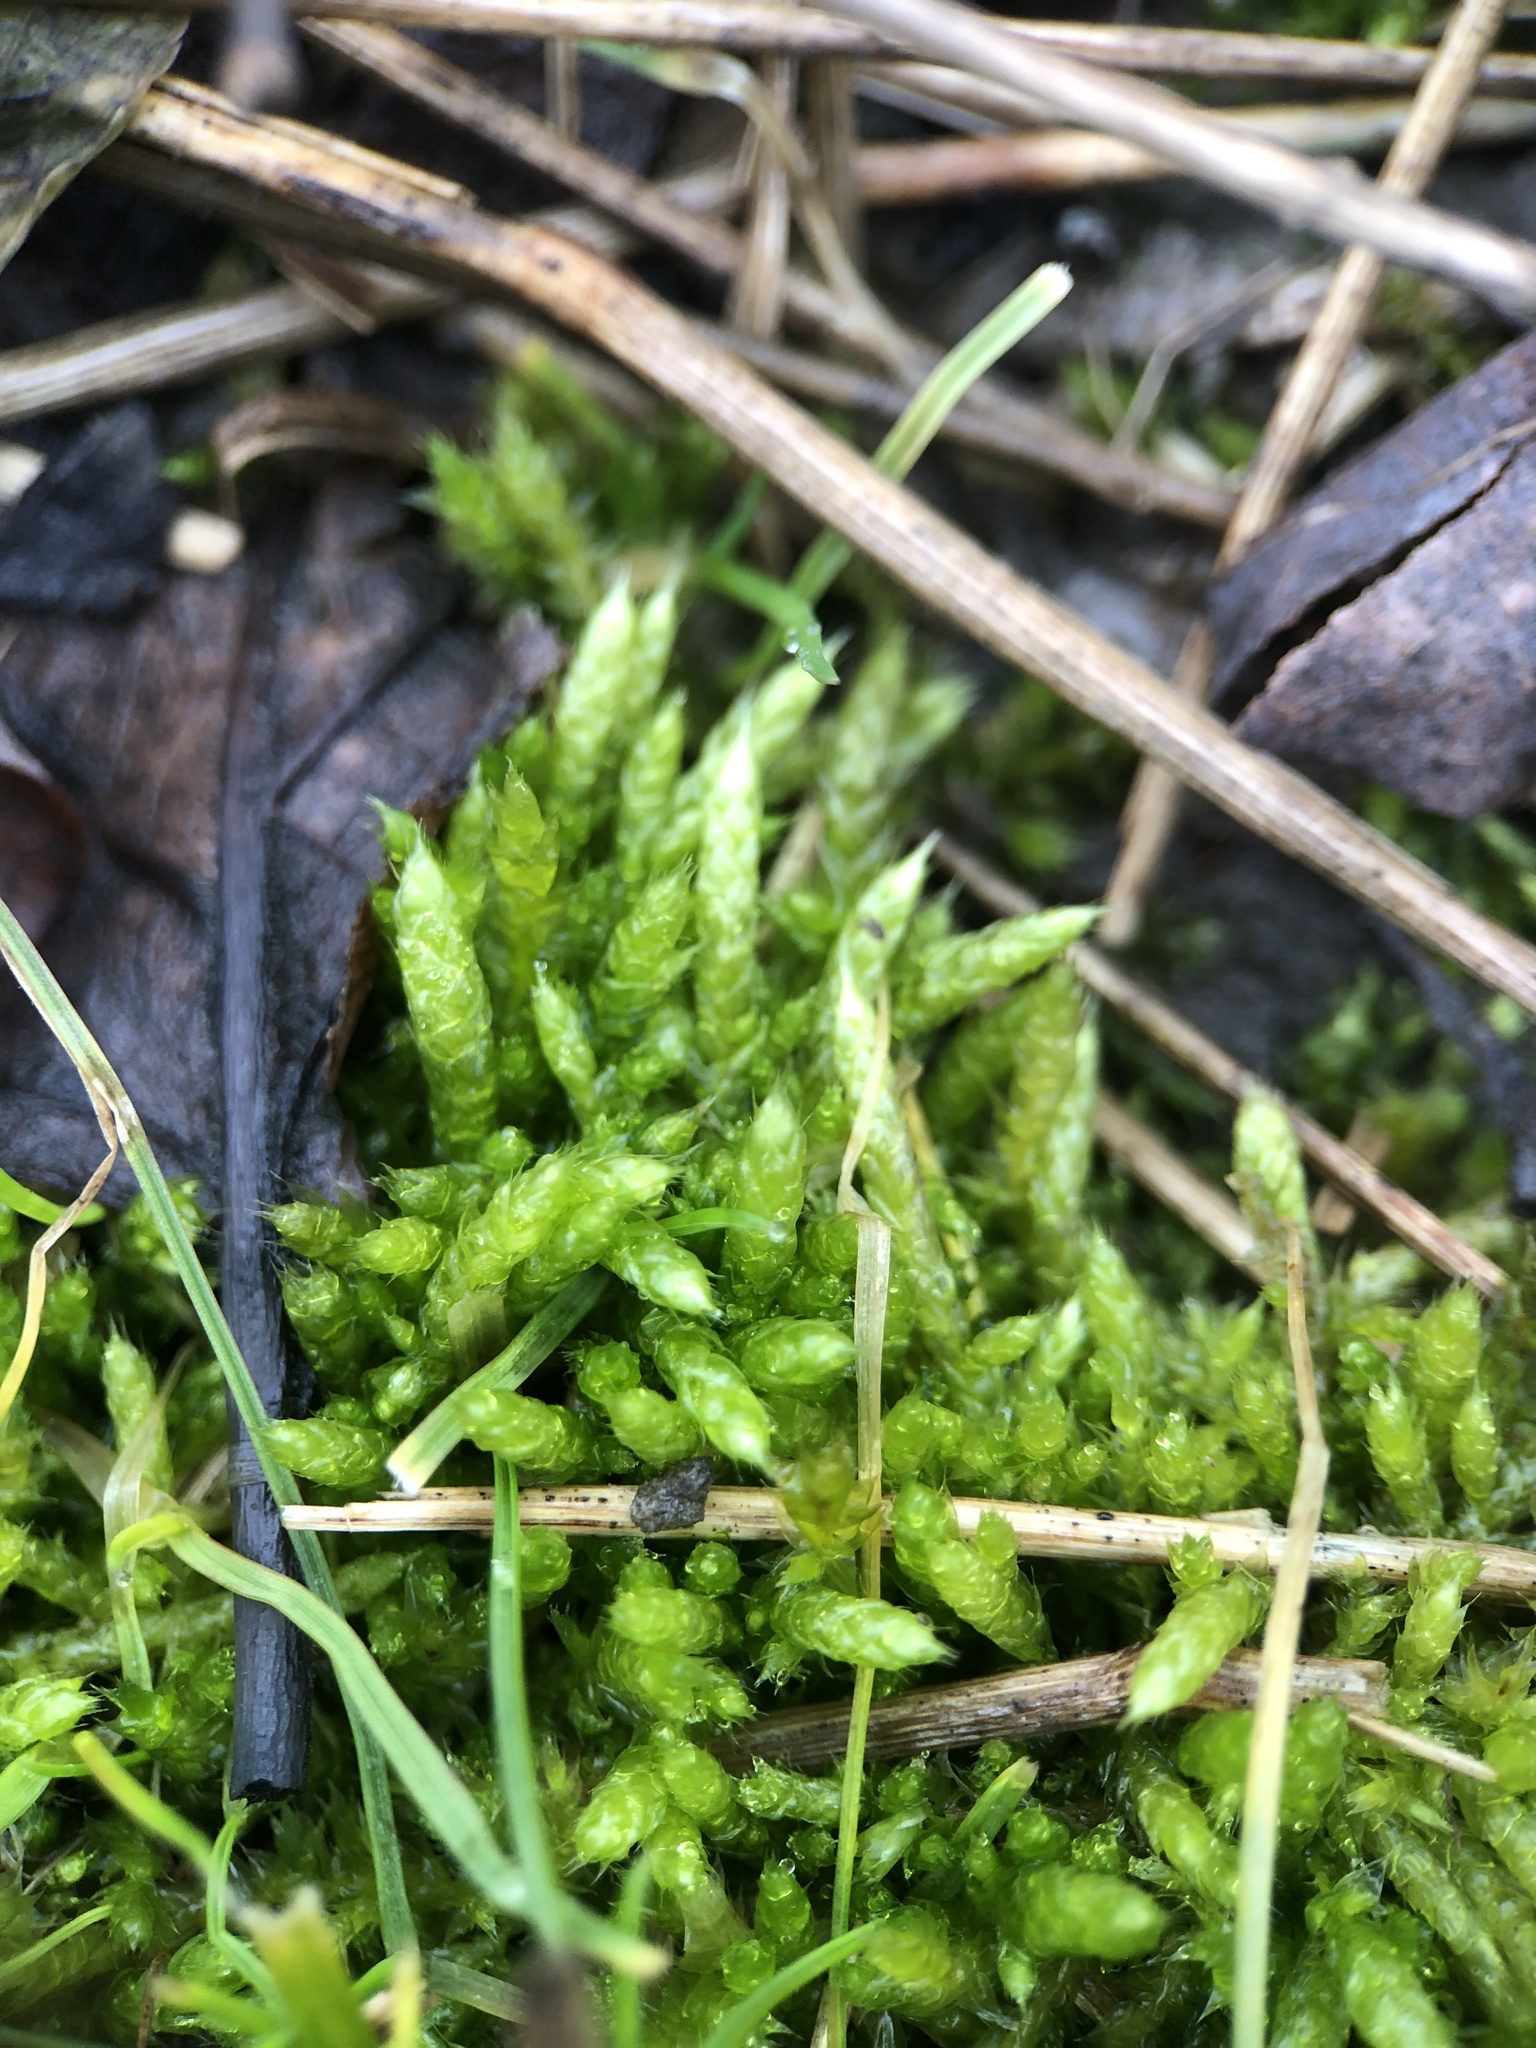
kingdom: Plantae
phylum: Bryophyta
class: Bryopsida
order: Hypnales
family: Brachytheciaceae
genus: Brachythecium
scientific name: Brachythecium albicans
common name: Whitish ragged moss
